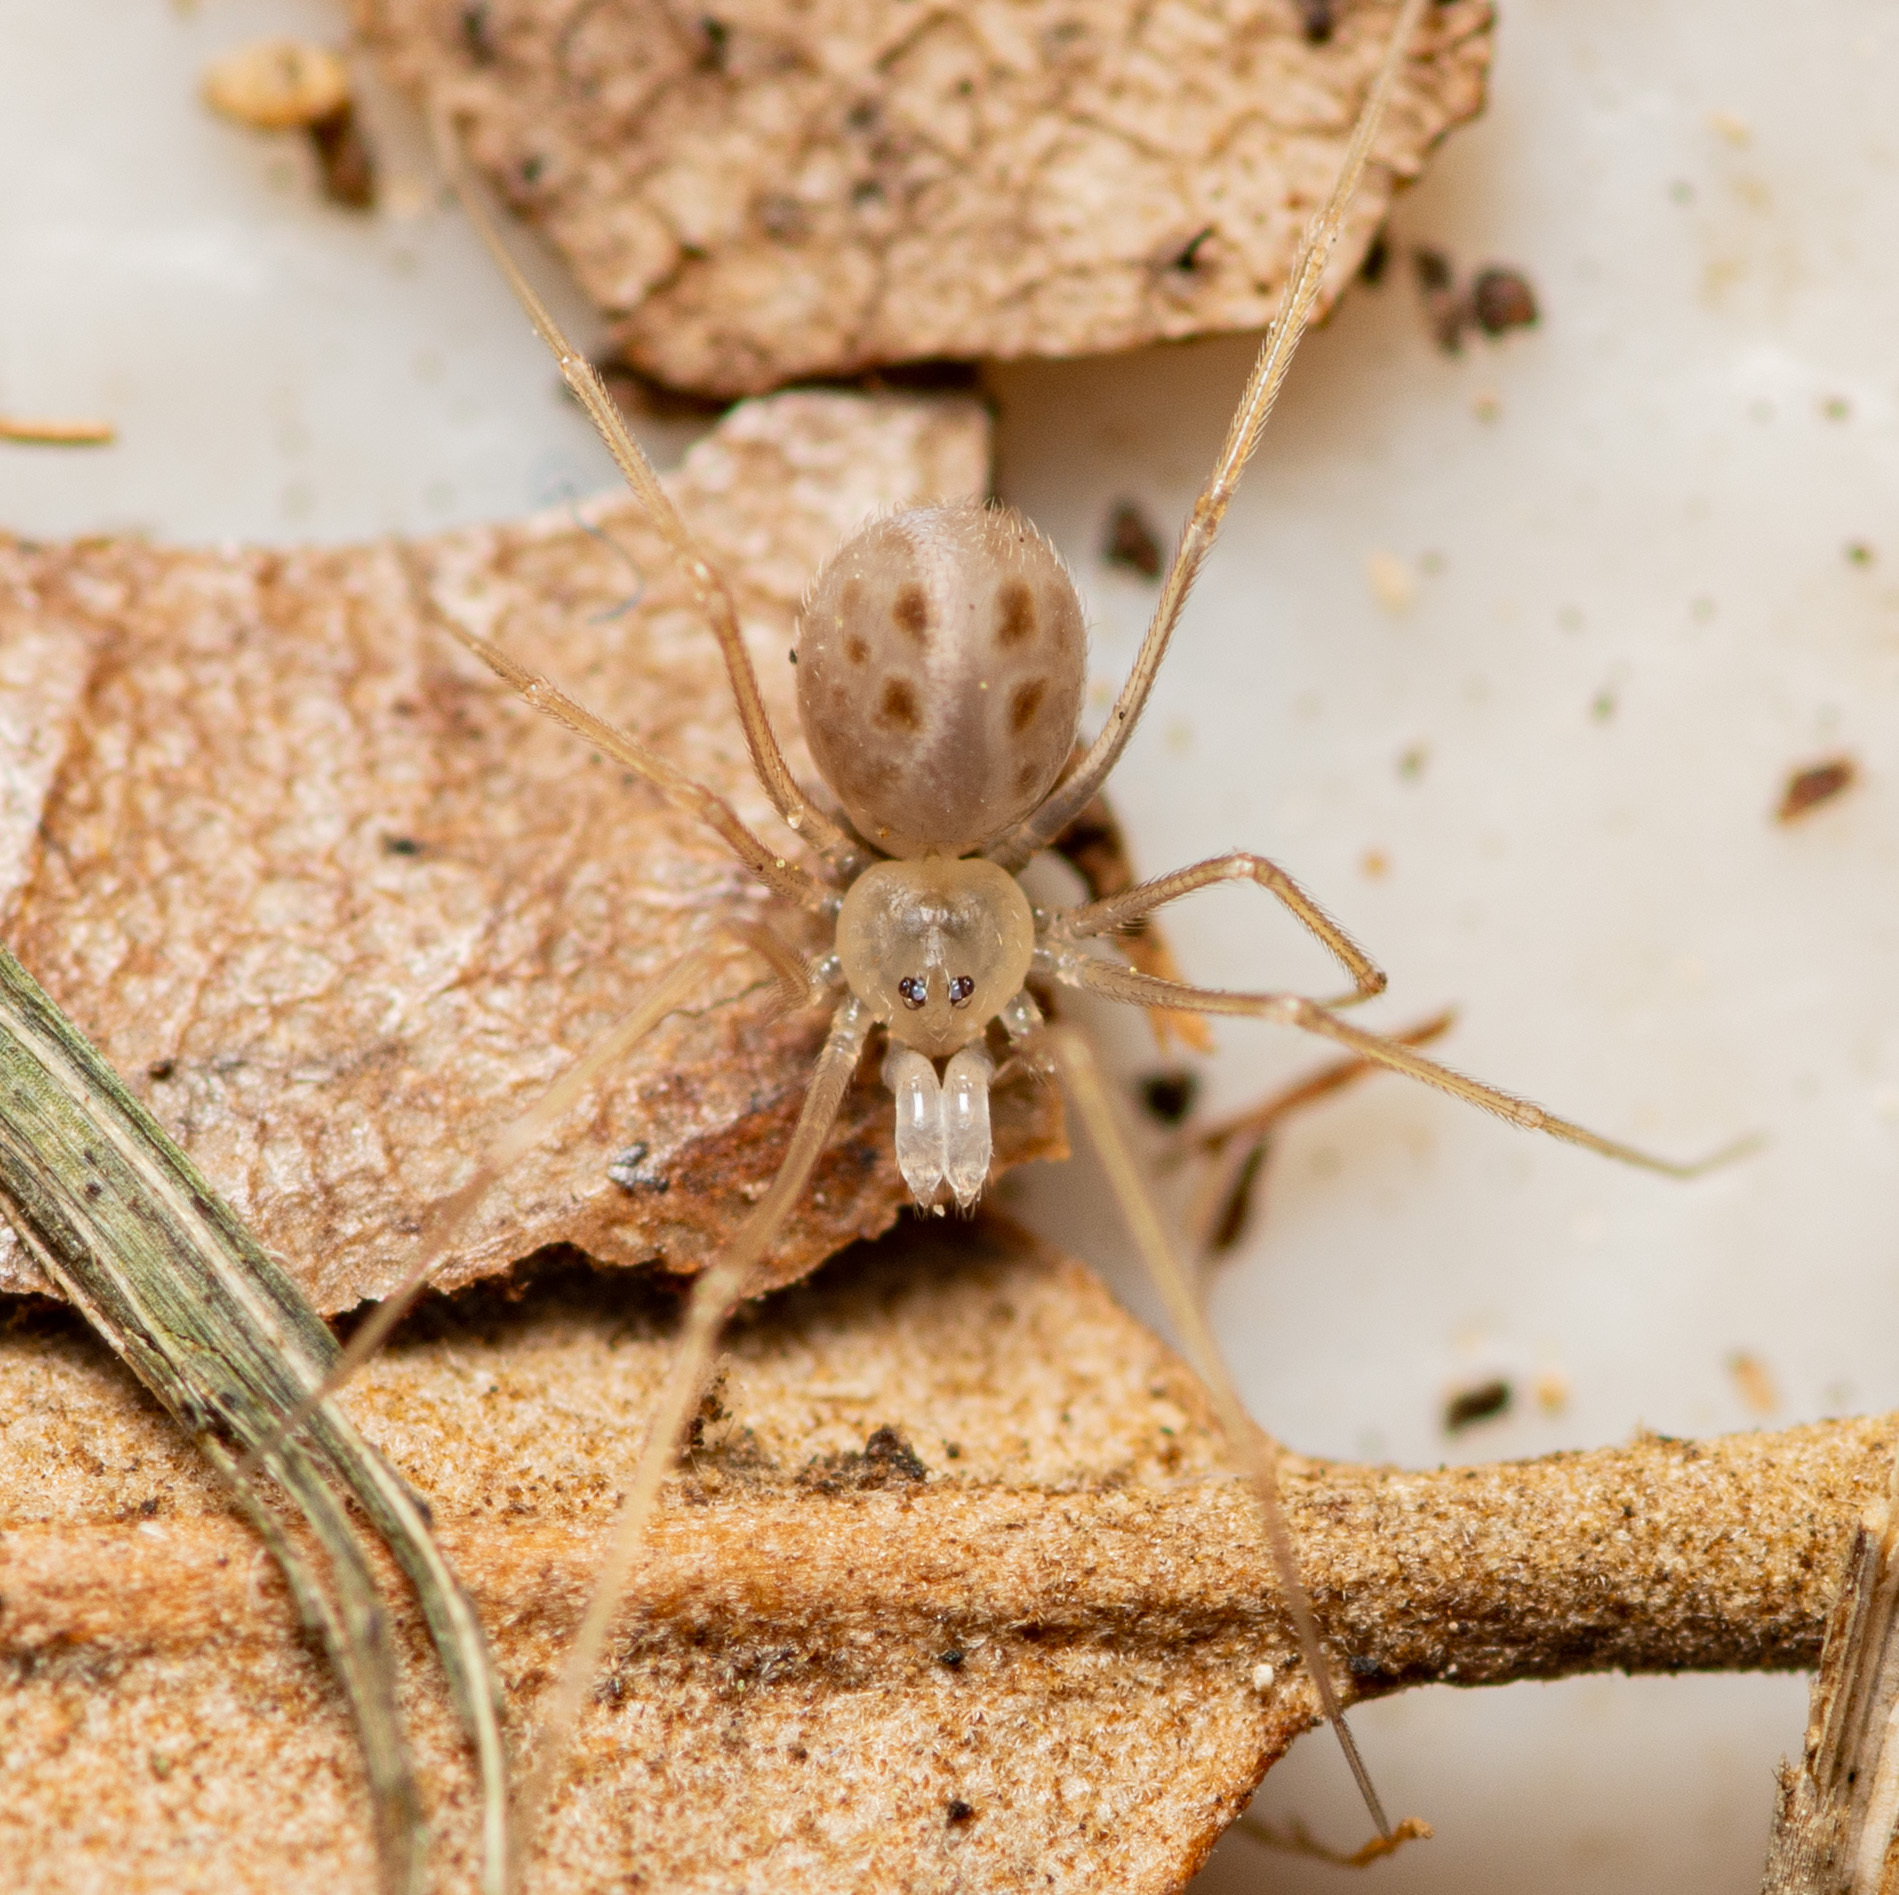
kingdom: Animalia
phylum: Arthropoda
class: Arachnida
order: Araneae
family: Pholcidae
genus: Spermophora
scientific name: Spermophora senoculata
